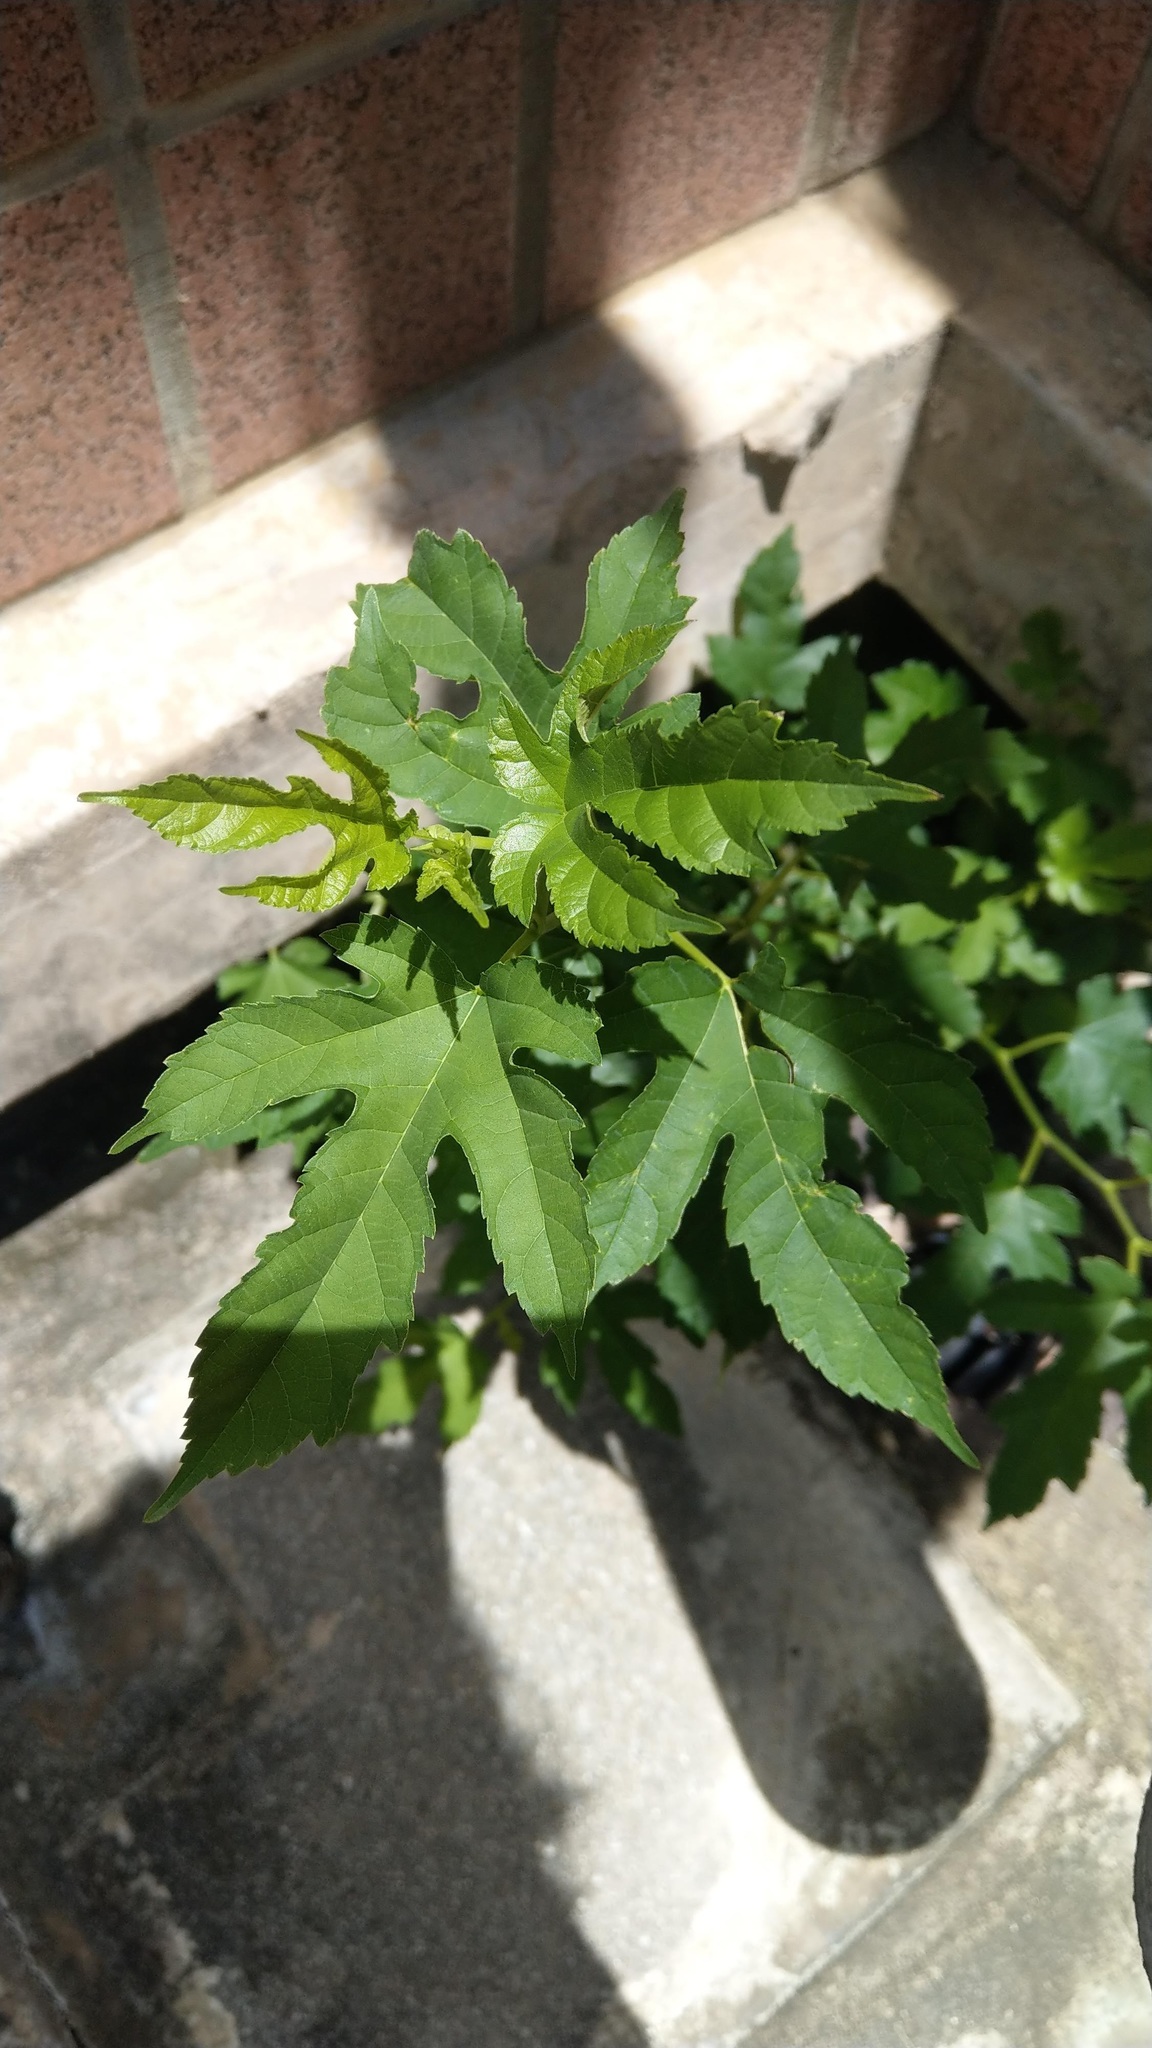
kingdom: Plantae
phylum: Tracheophyta
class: Magnoliopsida
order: Rosales
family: Moraceae
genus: Morus
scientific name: Morus indica
